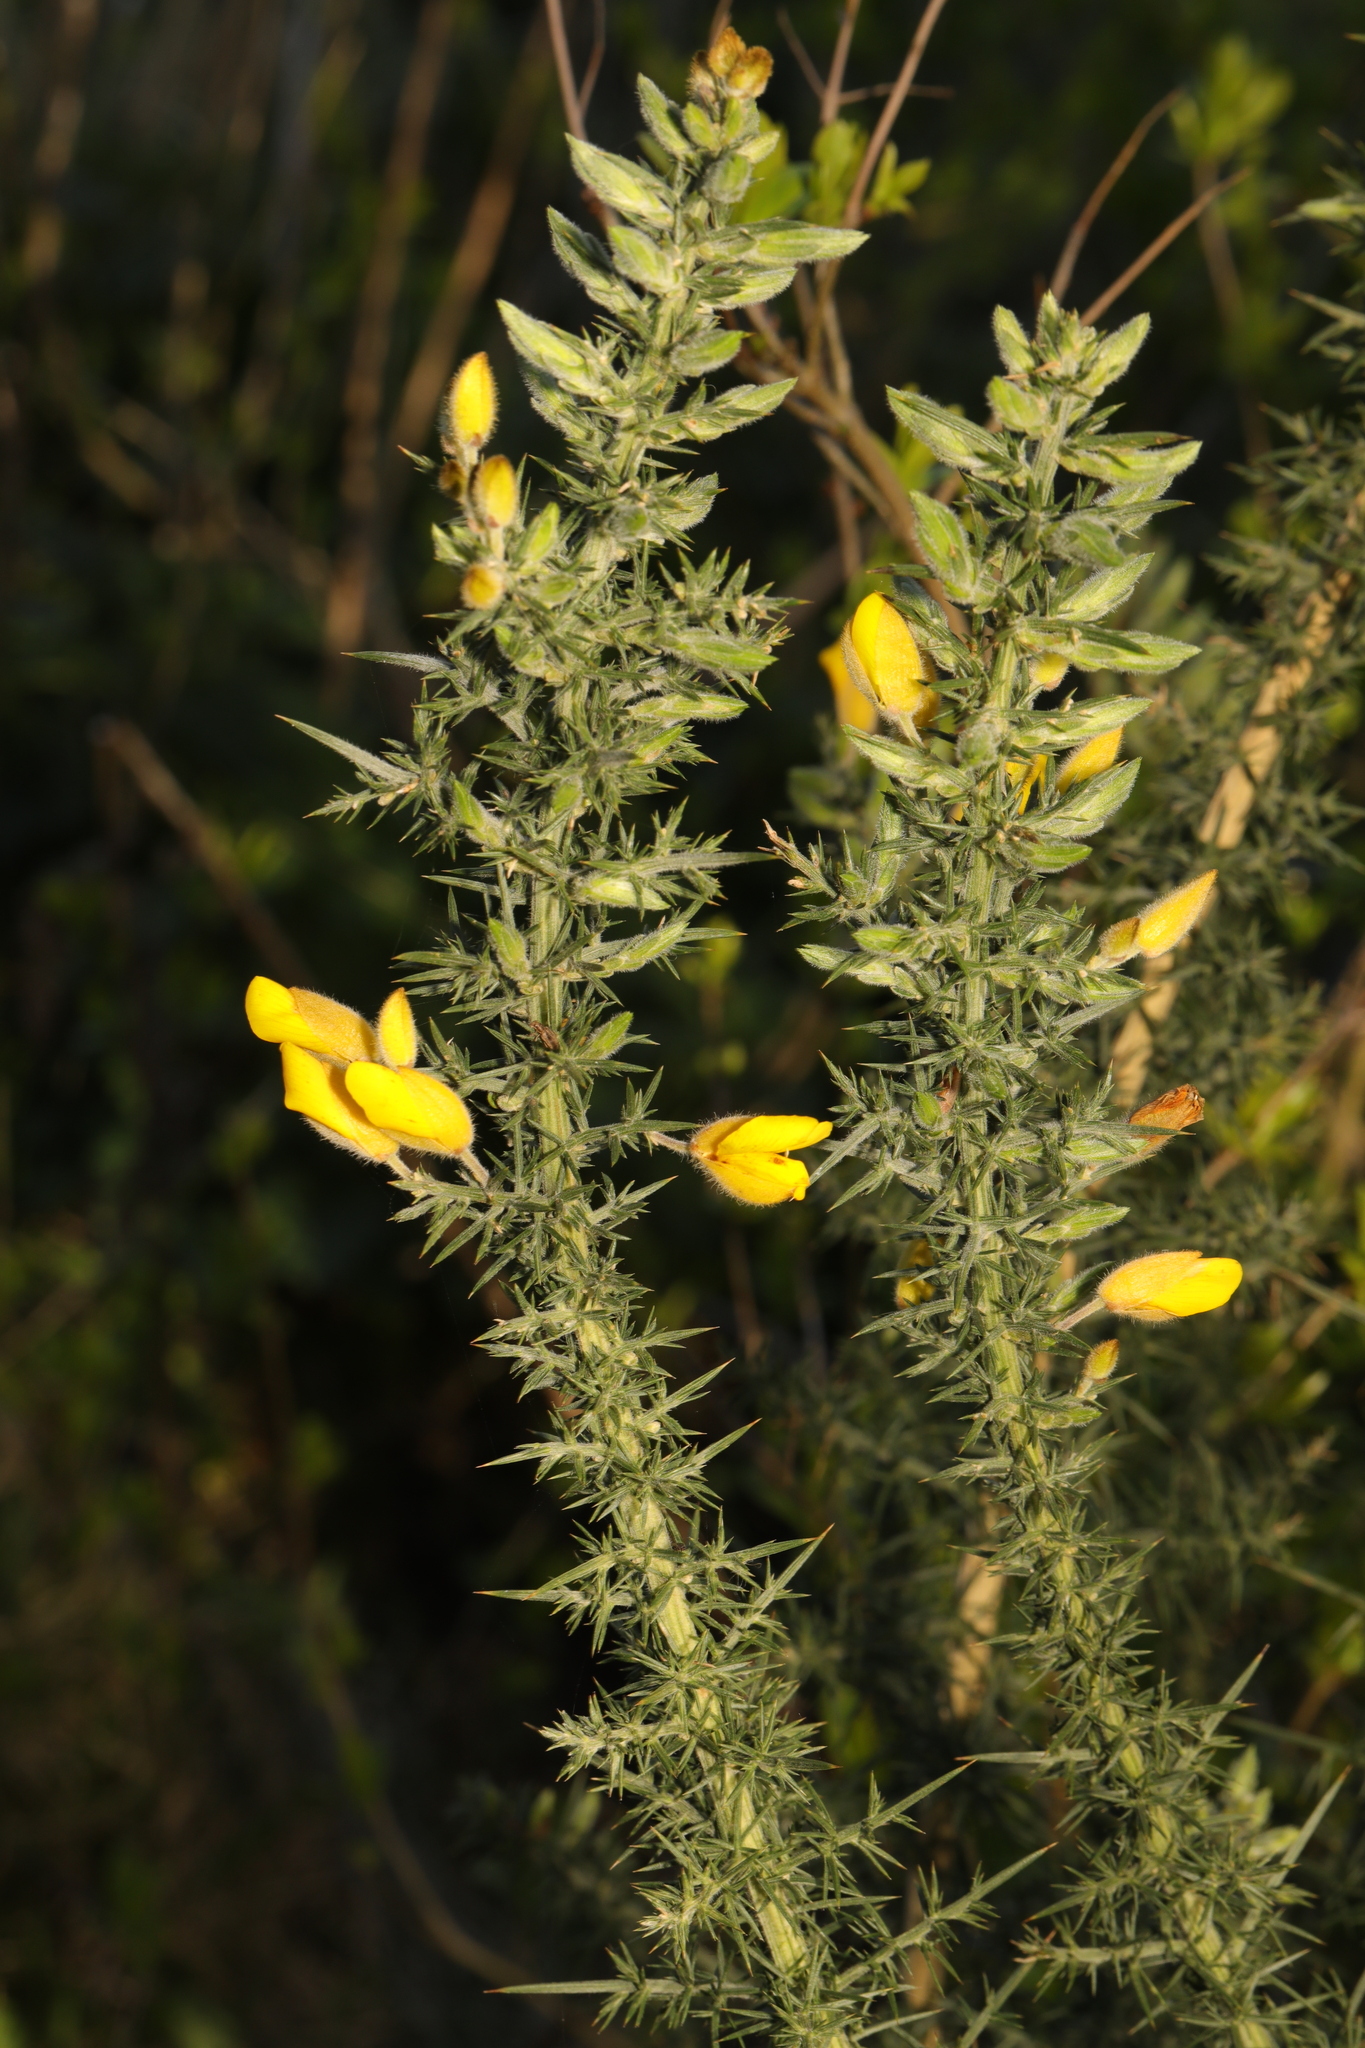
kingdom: Plantae
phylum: Tracheophyta
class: Magnoliopsida
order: Fabales
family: Fabaceae
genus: Ulex
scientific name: Ulex europaeus
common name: Common gorse
